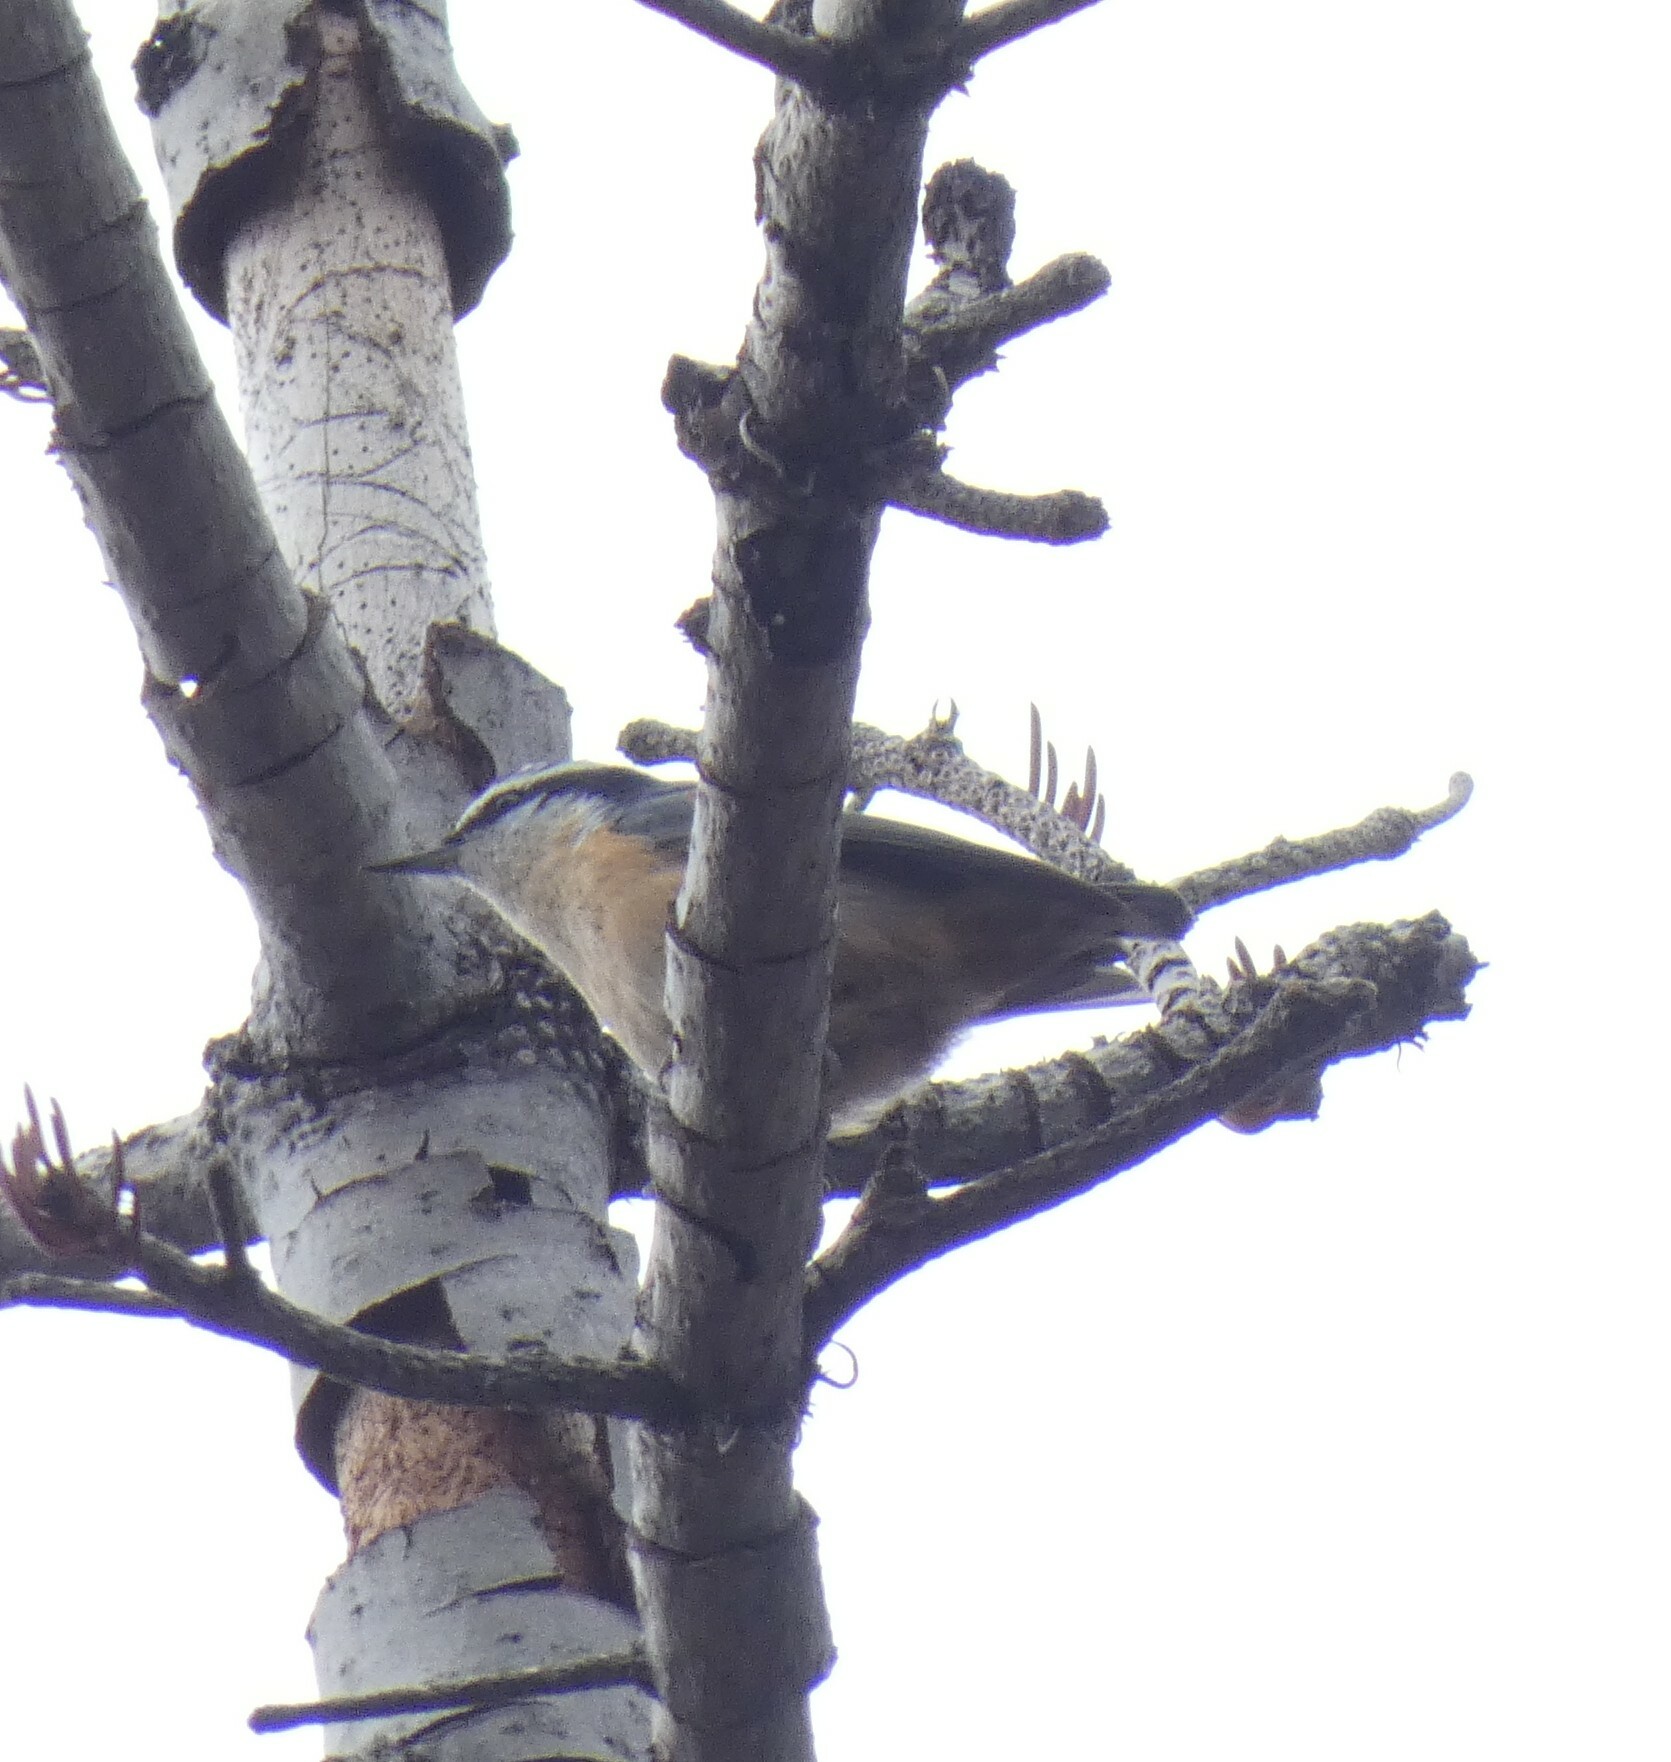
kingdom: Animalia
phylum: Chordata
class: Aves
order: Passeriformes
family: Sittidae
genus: Sitta
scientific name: Sitta canadensis
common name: Red-breasted nuthatch
